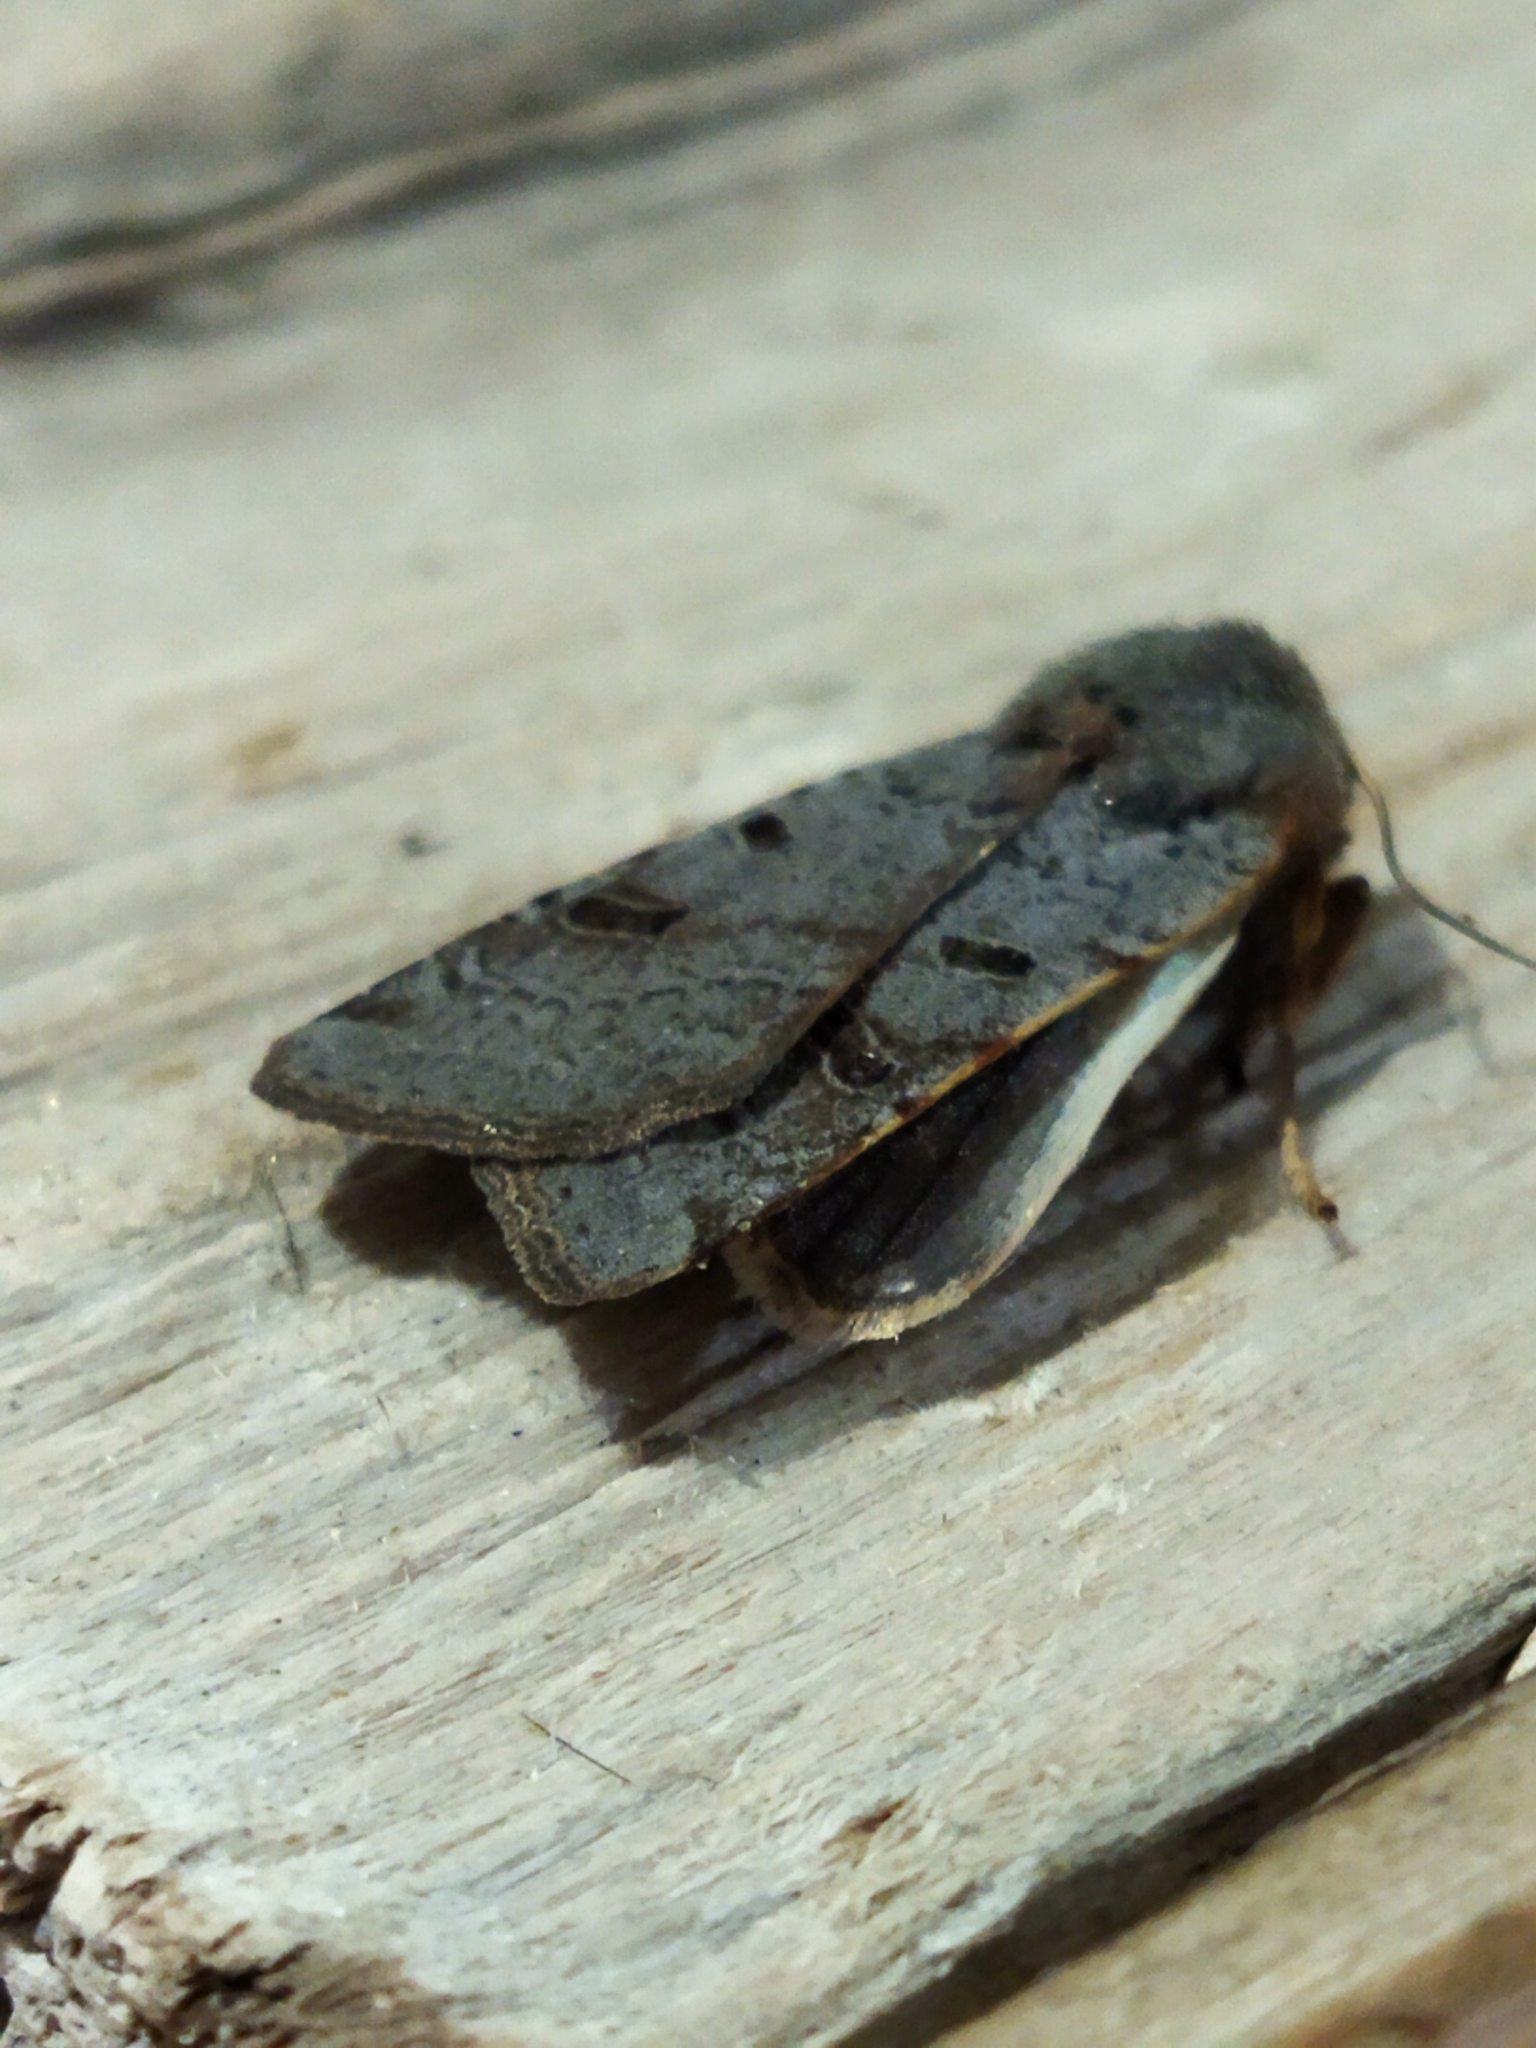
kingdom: Animalia
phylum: Arthropoda
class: Insecta
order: Lepidoptera
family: Noctuidae
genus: Agrochola
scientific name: Agrochola lychnidis
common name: Beaded chestnut
